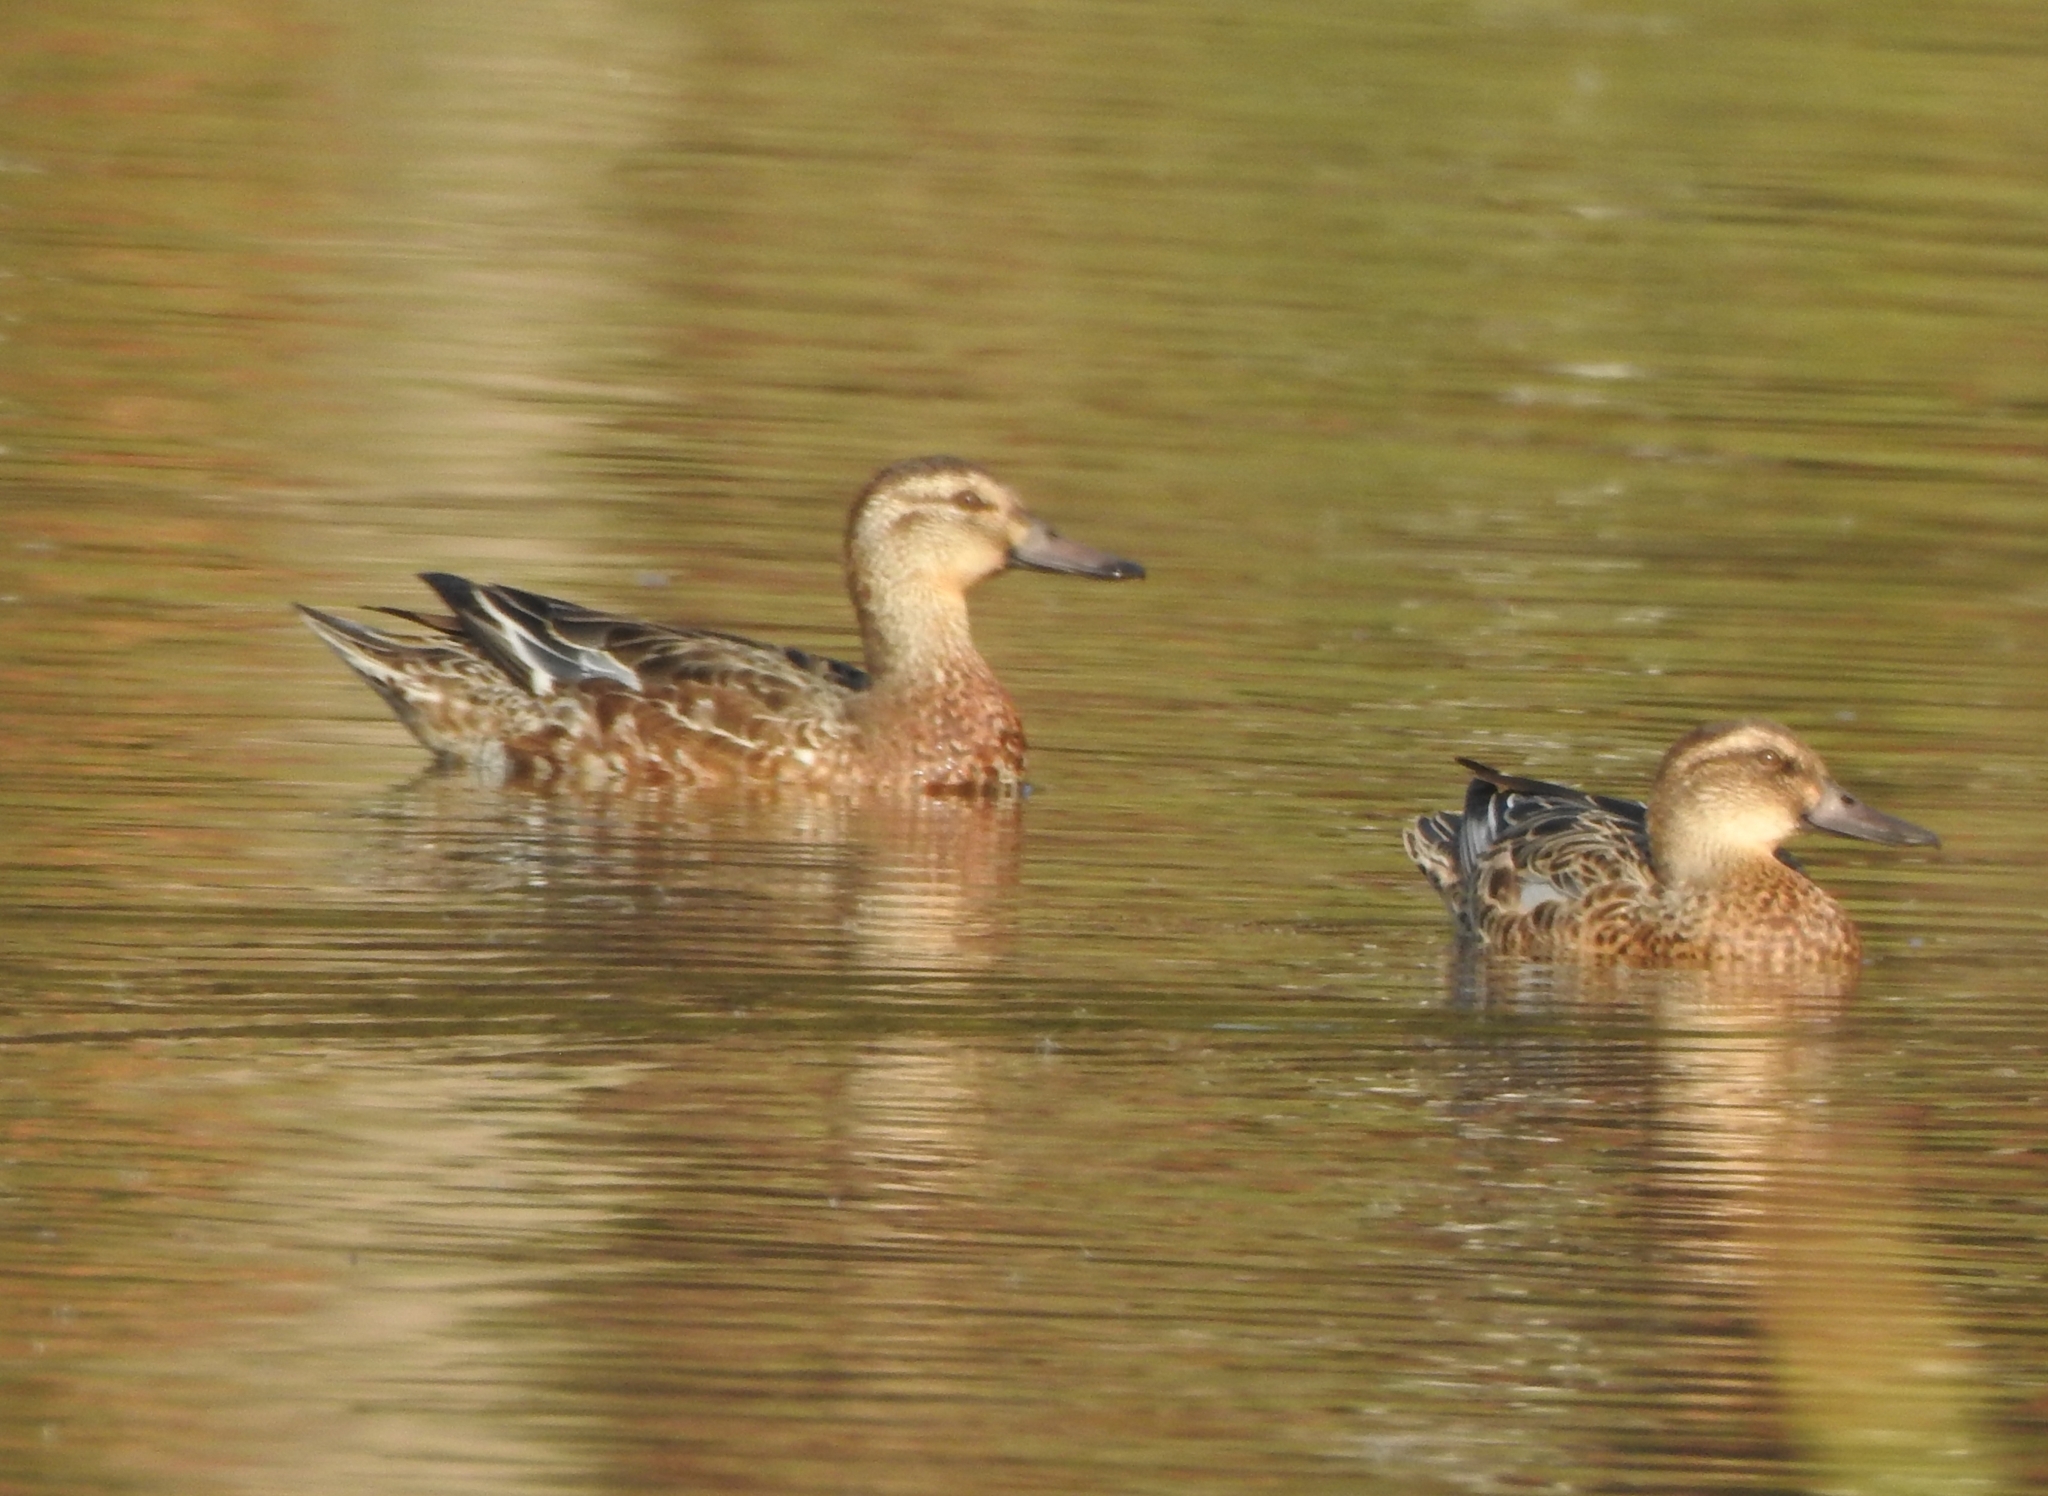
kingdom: Animalia
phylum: Chordata
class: Aves
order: Anseriformes
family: Anatidae
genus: Spatula
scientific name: Spatula querquedula
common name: Garganey
